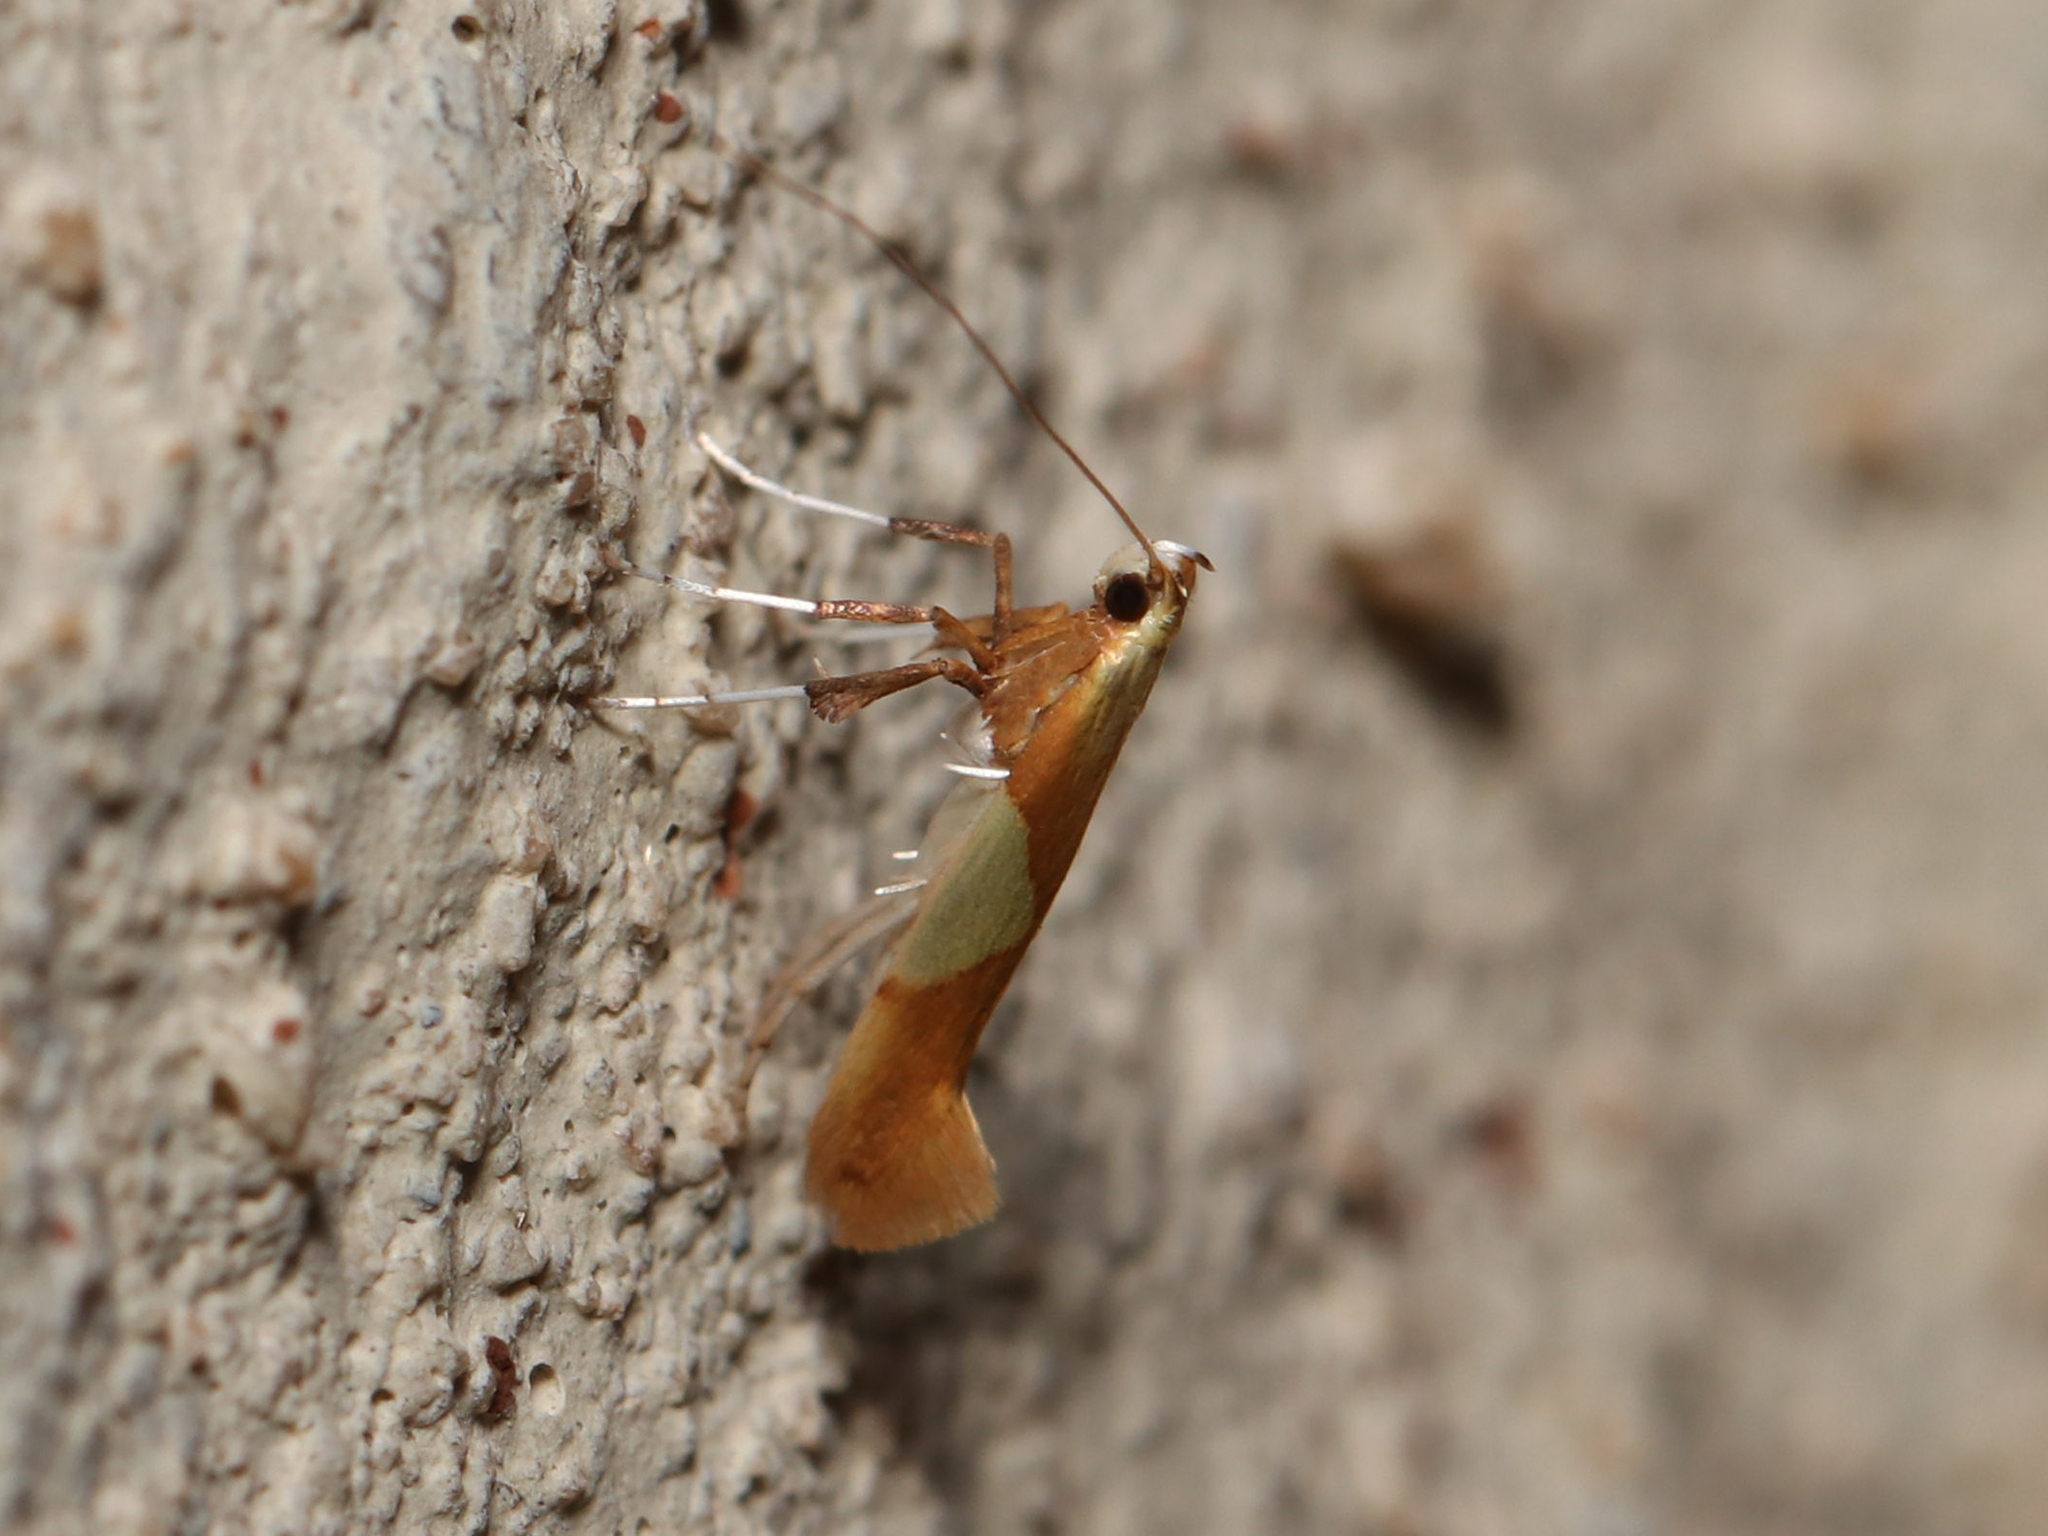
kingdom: Animalia
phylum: Arthropoda
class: Insecta
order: Lepidoptera
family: Gracillariidae
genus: Caloptilia
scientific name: Caloptilia packardella
